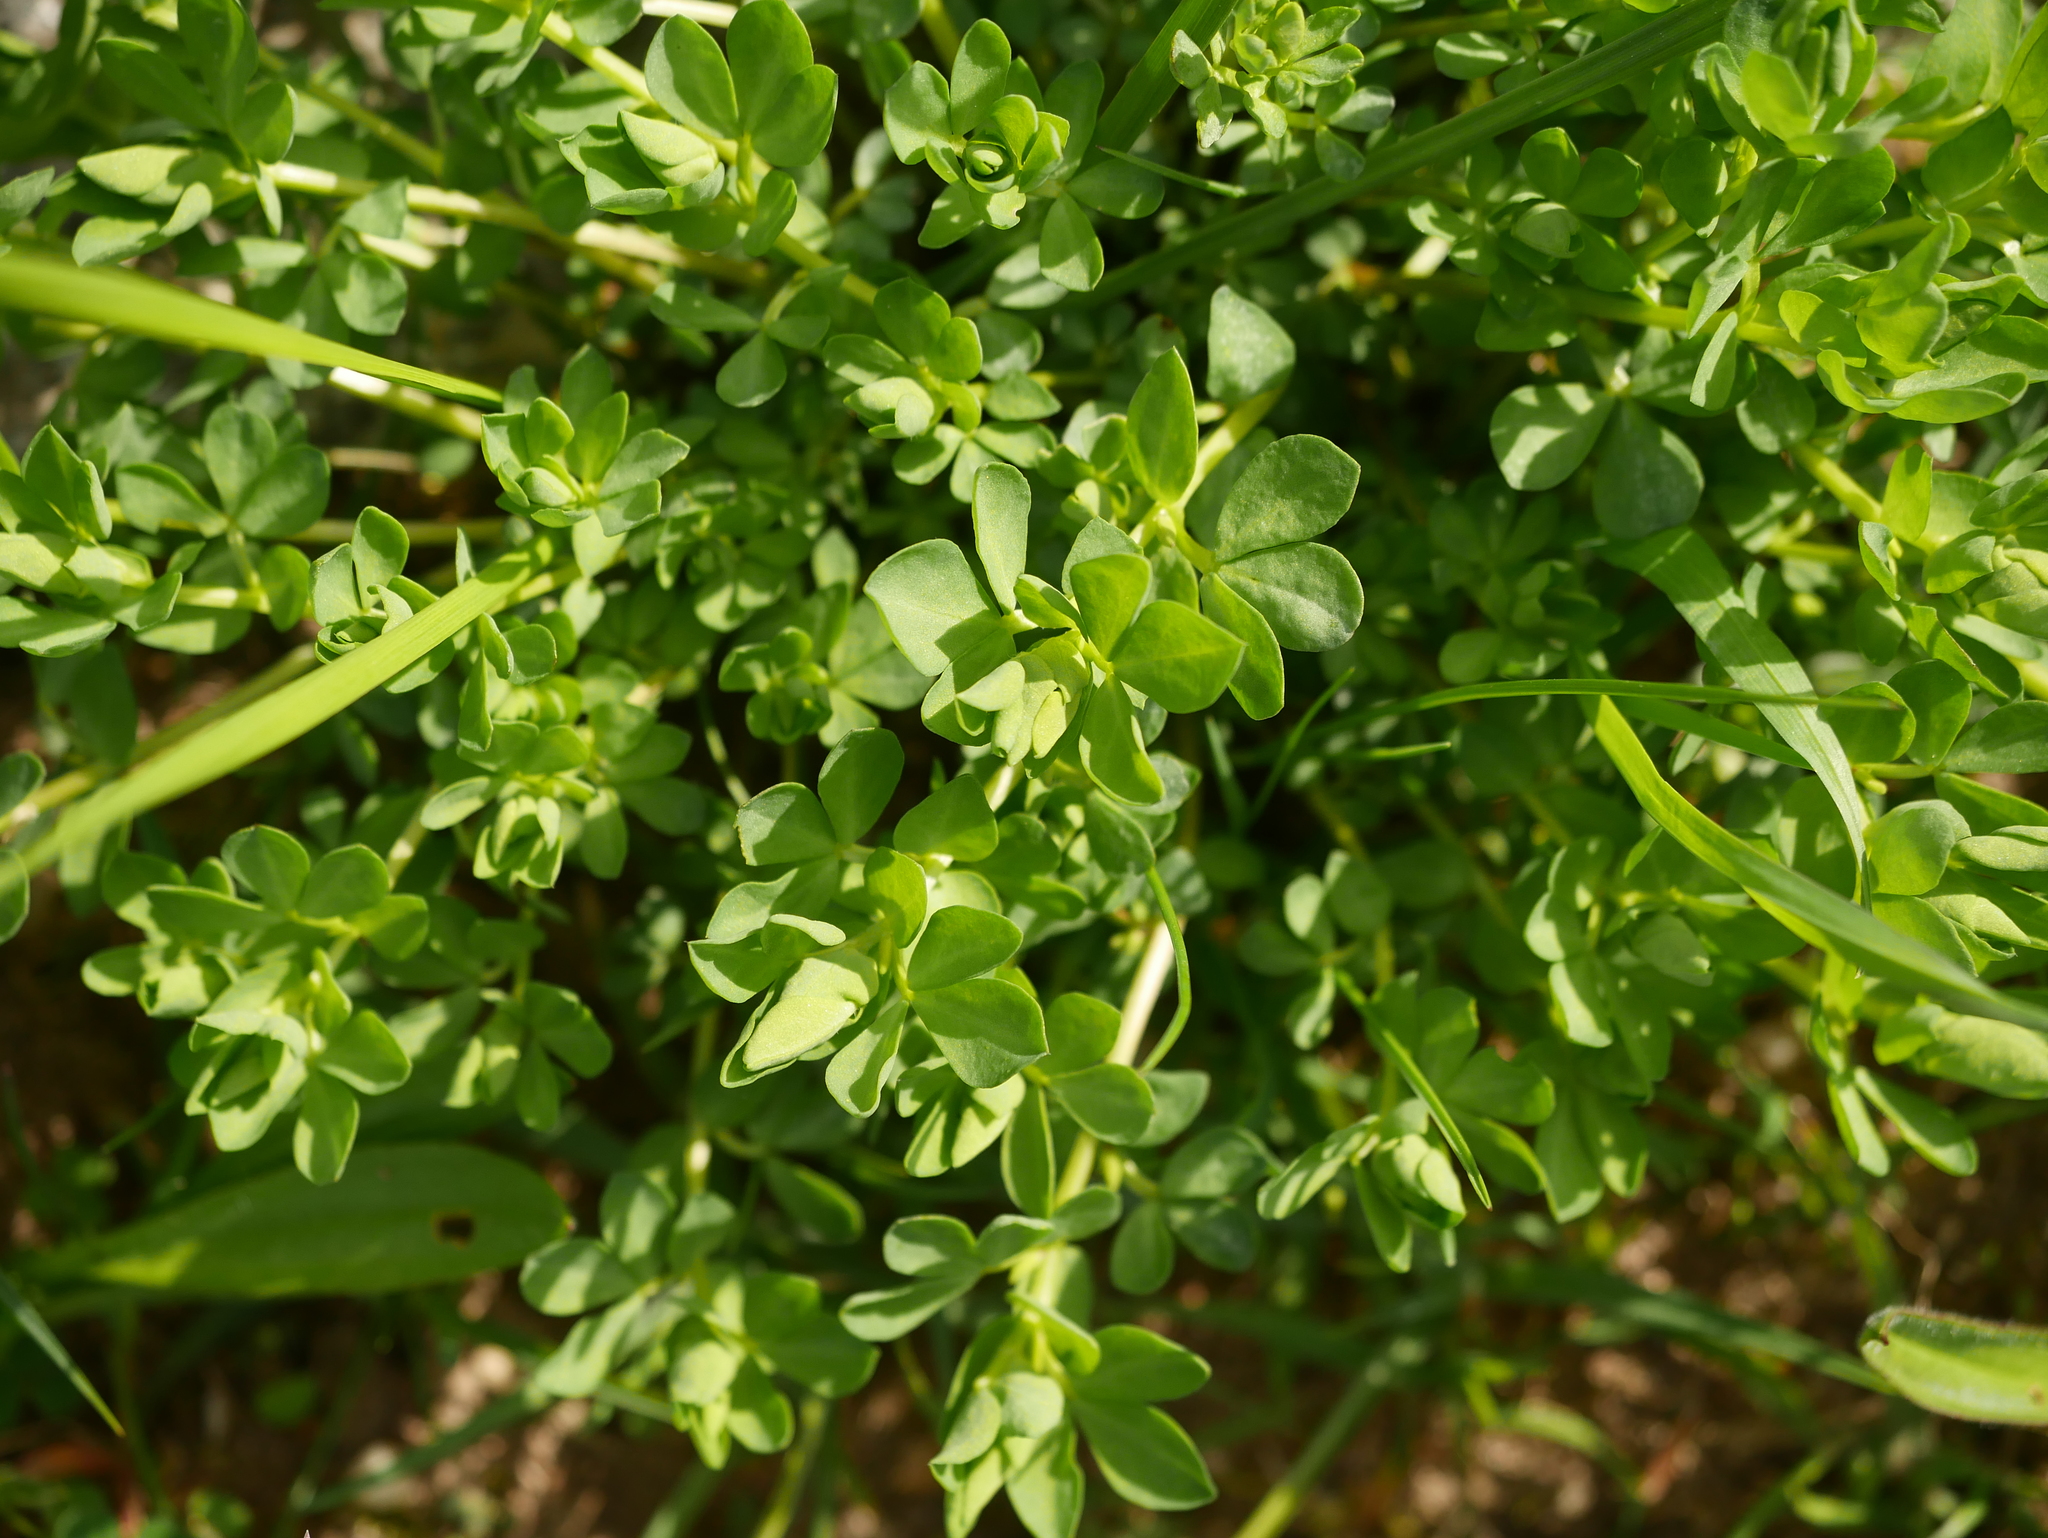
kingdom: Plantae
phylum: Tracheophyta
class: Magnoliopsida
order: Fabales
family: Fabaceae
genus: Lotus
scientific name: Lotus corniculatus
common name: Common bird's-foot-trefoil
